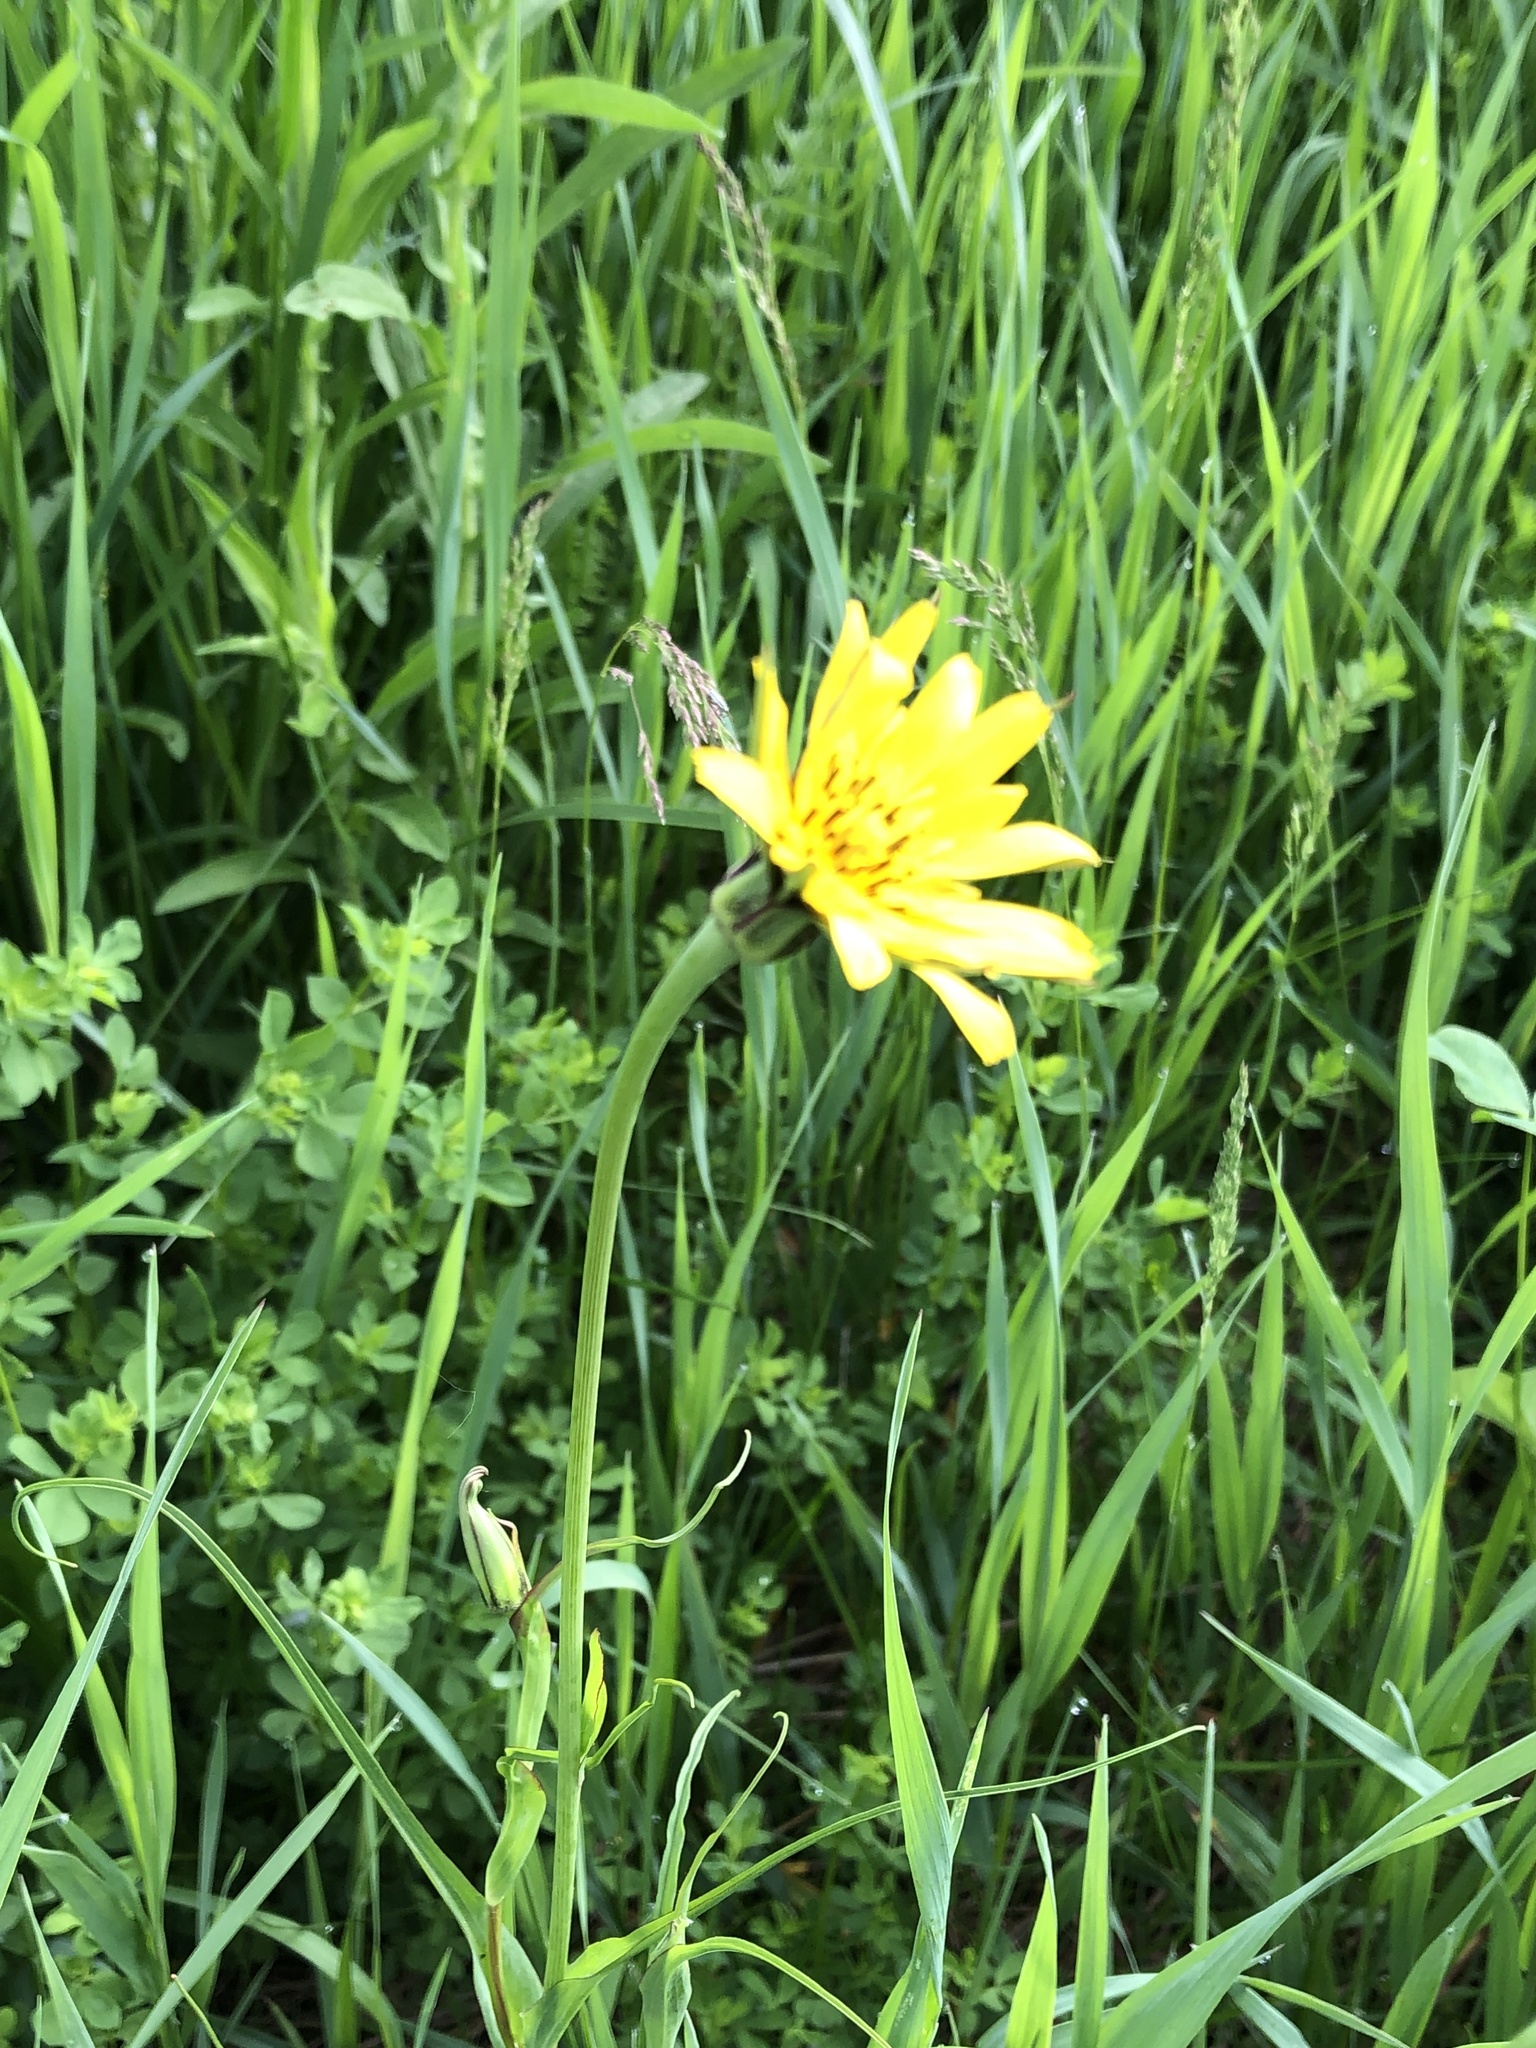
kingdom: Plantae
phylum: Tracheophyta
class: Magnoliopsida
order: Asterales
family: Asteraceae
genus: Tragopogon
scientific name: Tragopogon pratensis
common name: Goat's-beard
